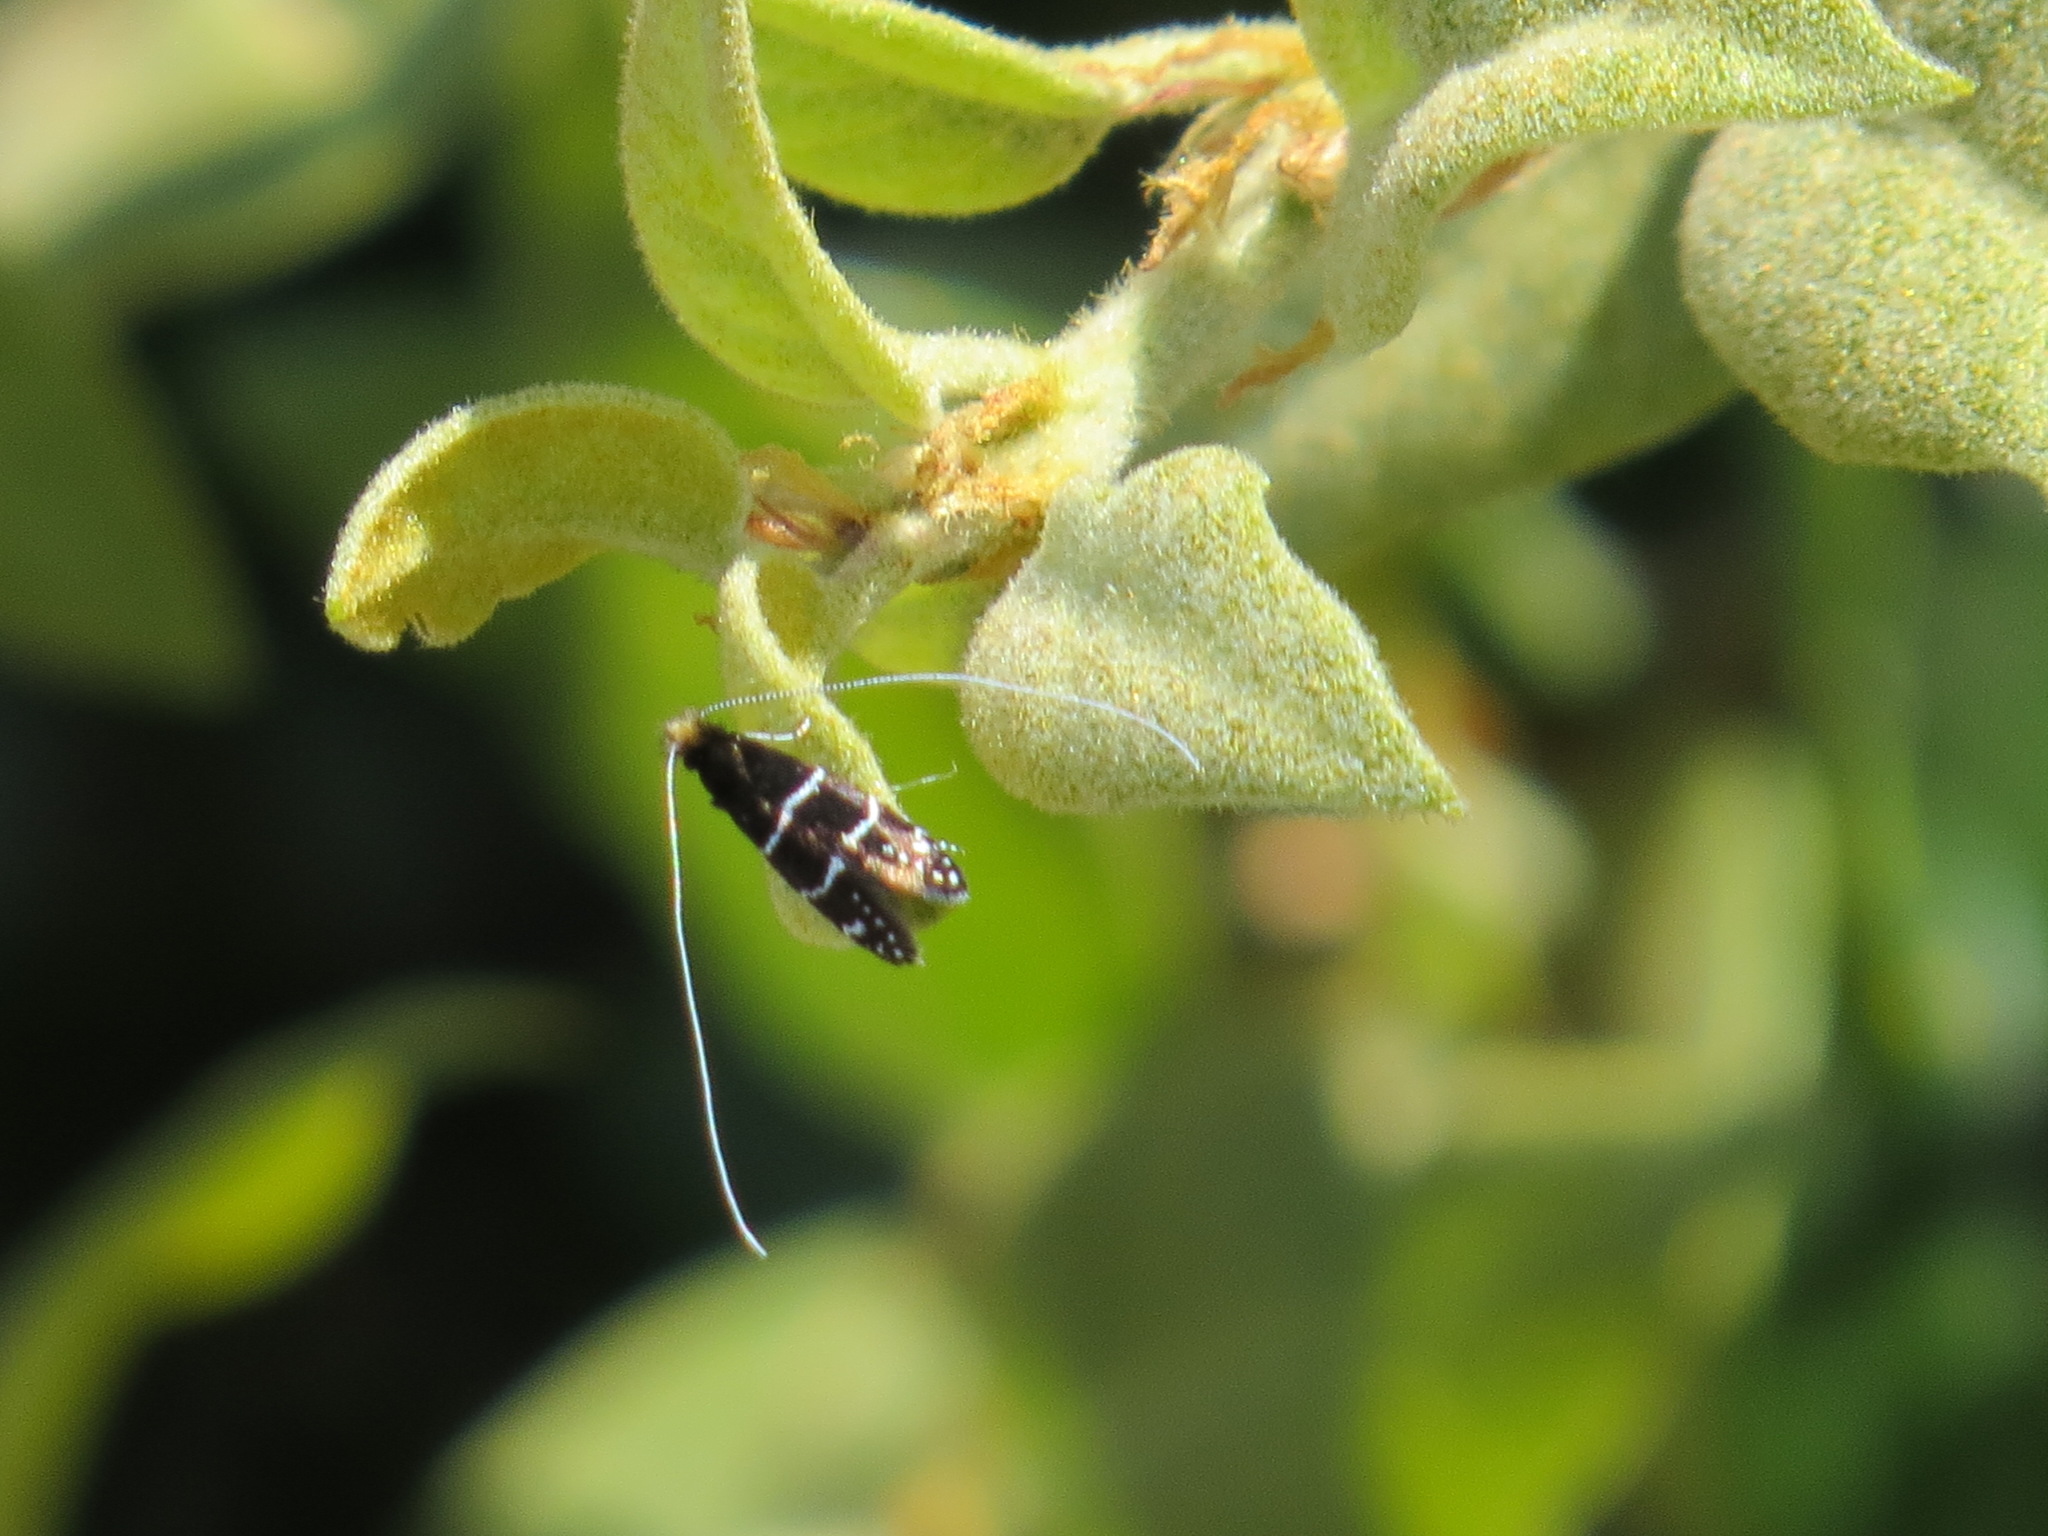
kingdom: Animalia
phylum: Arthropoda
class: Insecta
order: Lepidoptera
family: Adelidae
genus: Adela
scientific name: Adela septentrionella
